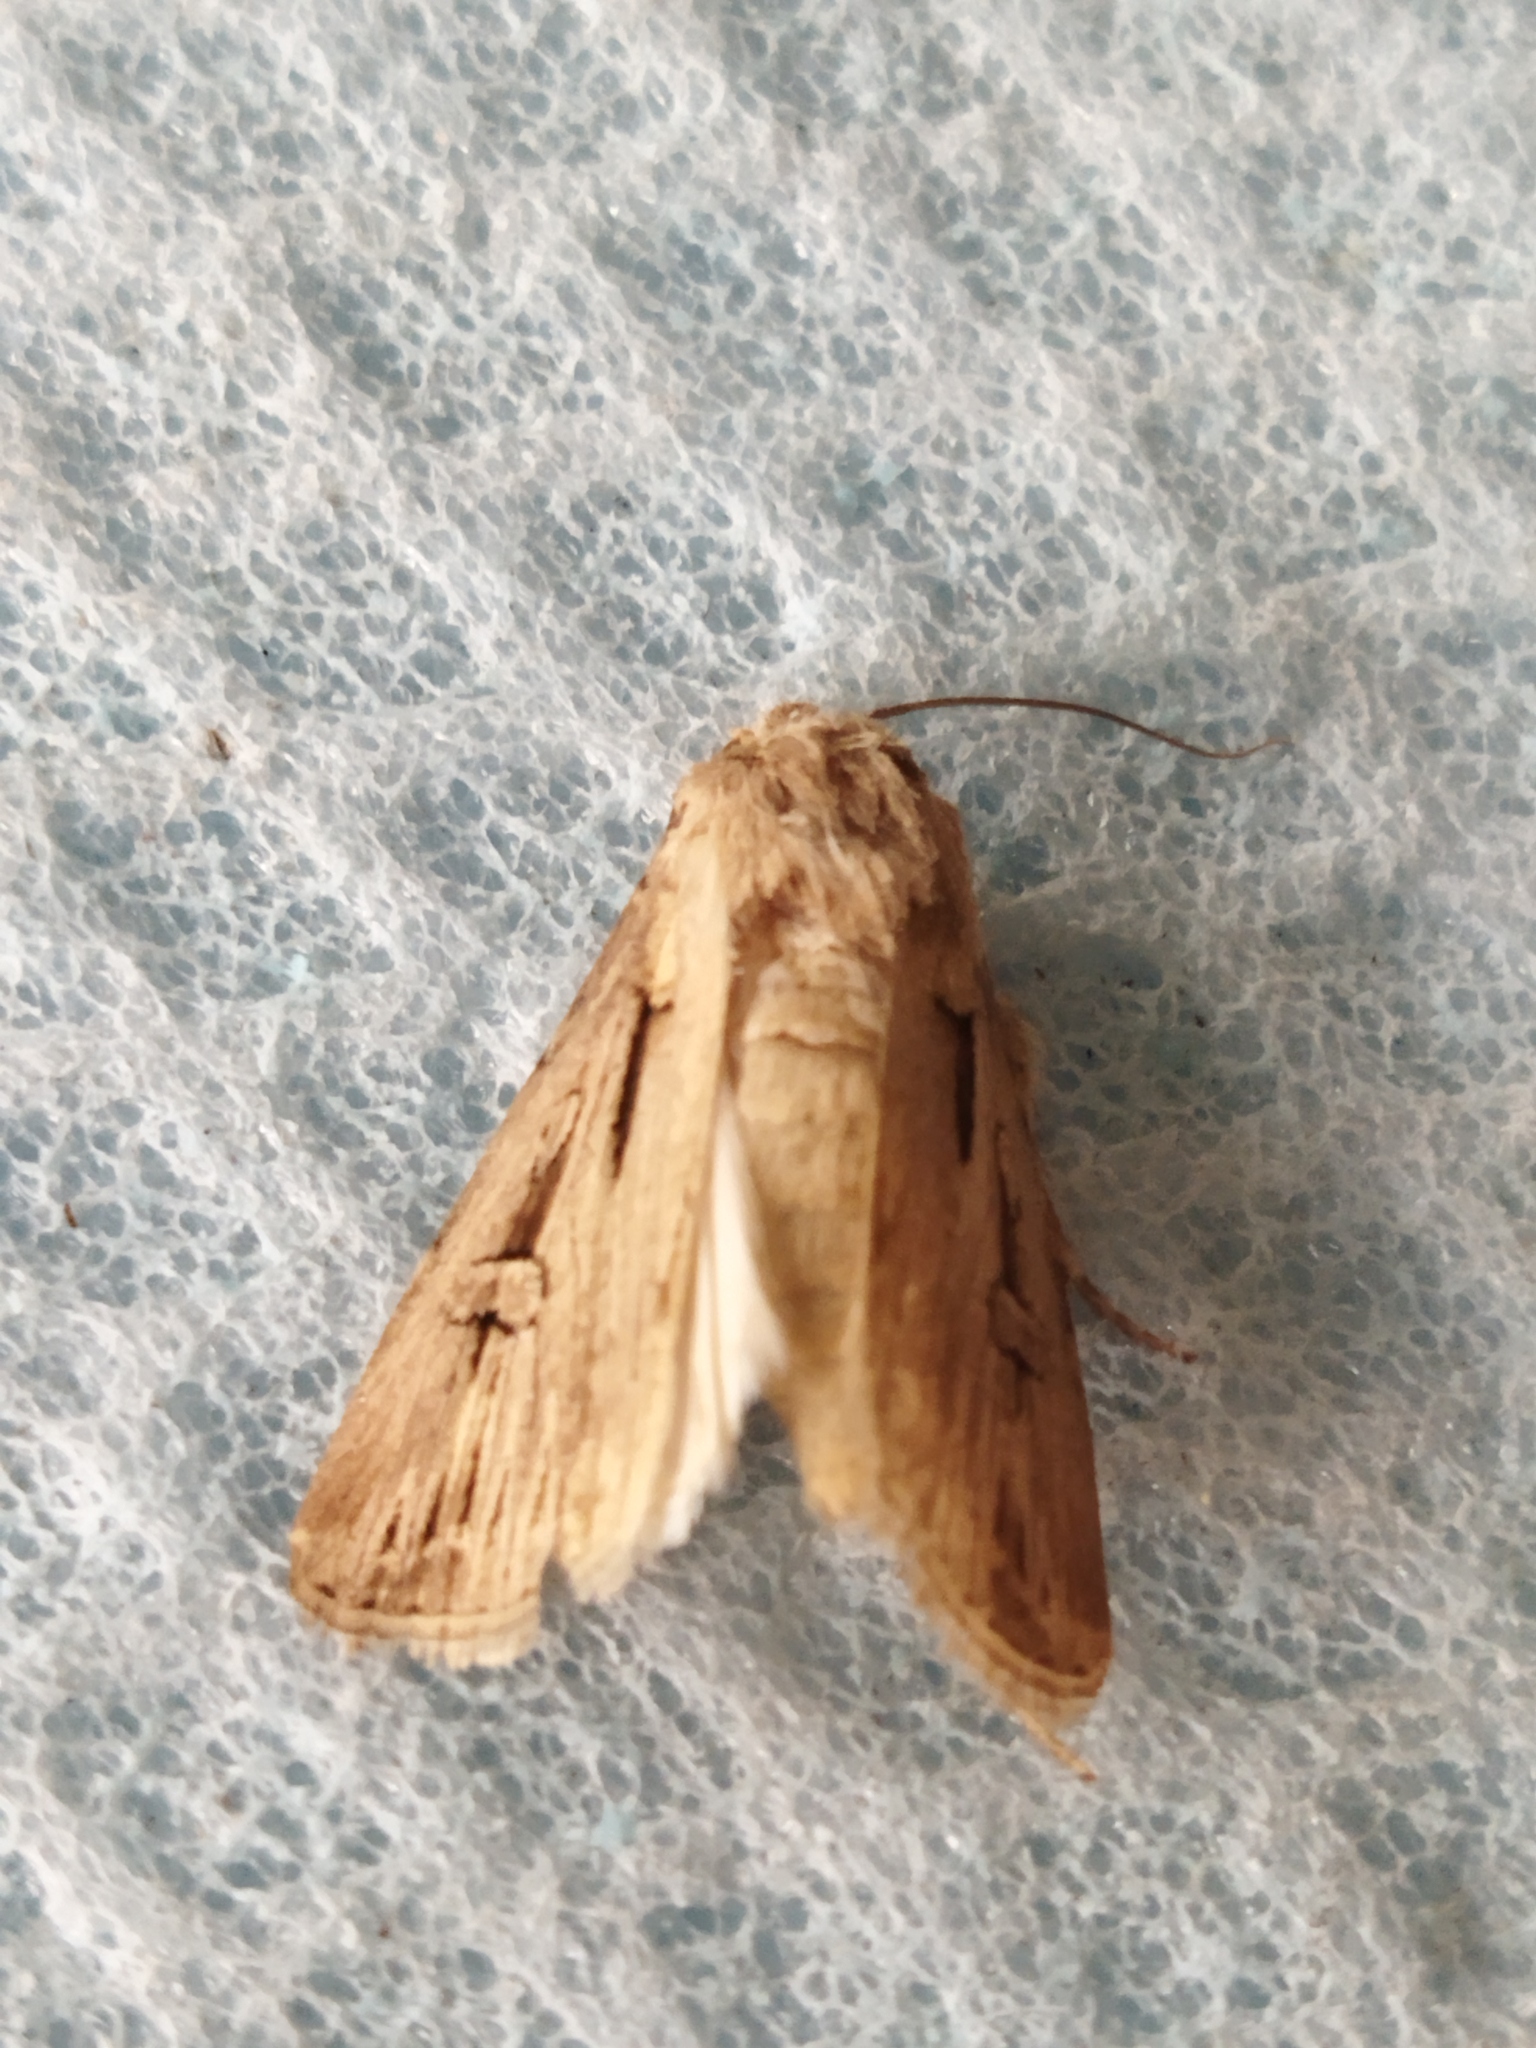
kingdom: Animalia
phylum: Arthropoda
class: Insecta
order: Lepidoptera
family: Noctuidae
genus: Agrotis
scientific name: Agrotis
